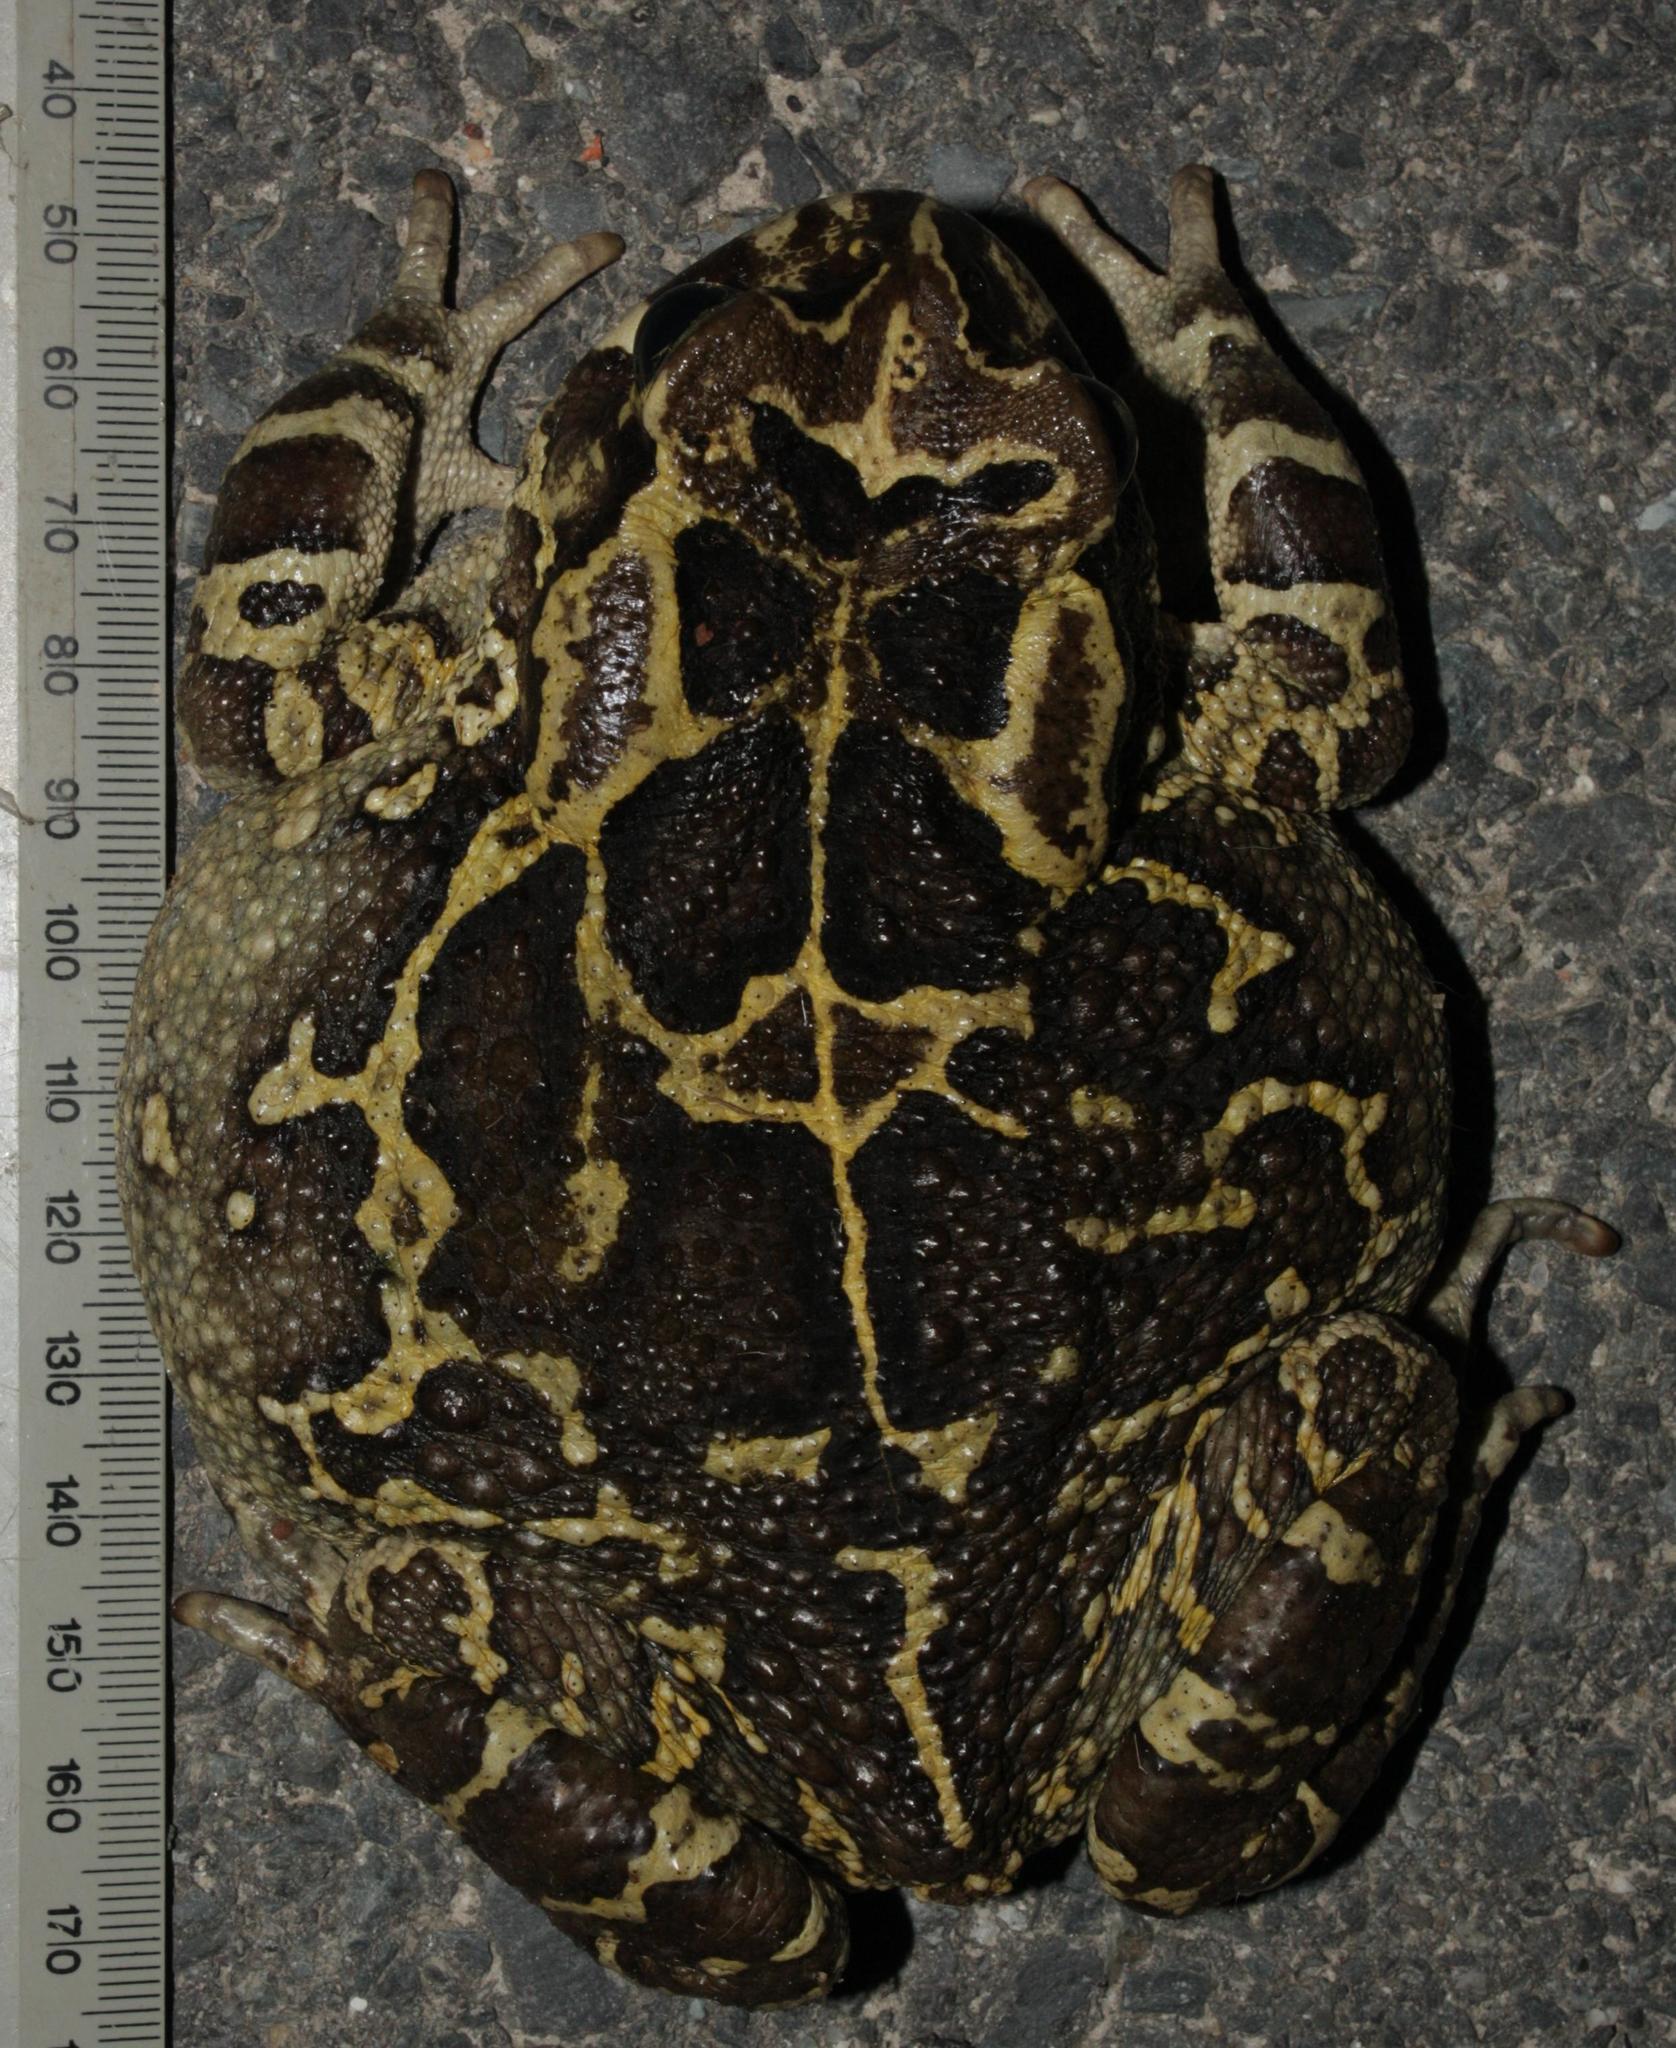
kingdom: Animalia
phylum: Chordata
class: Amphibia
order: Anura
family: Bufonidae
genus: Sclerophrys
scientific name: Sclerophrys pantherina
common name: Panther toad
